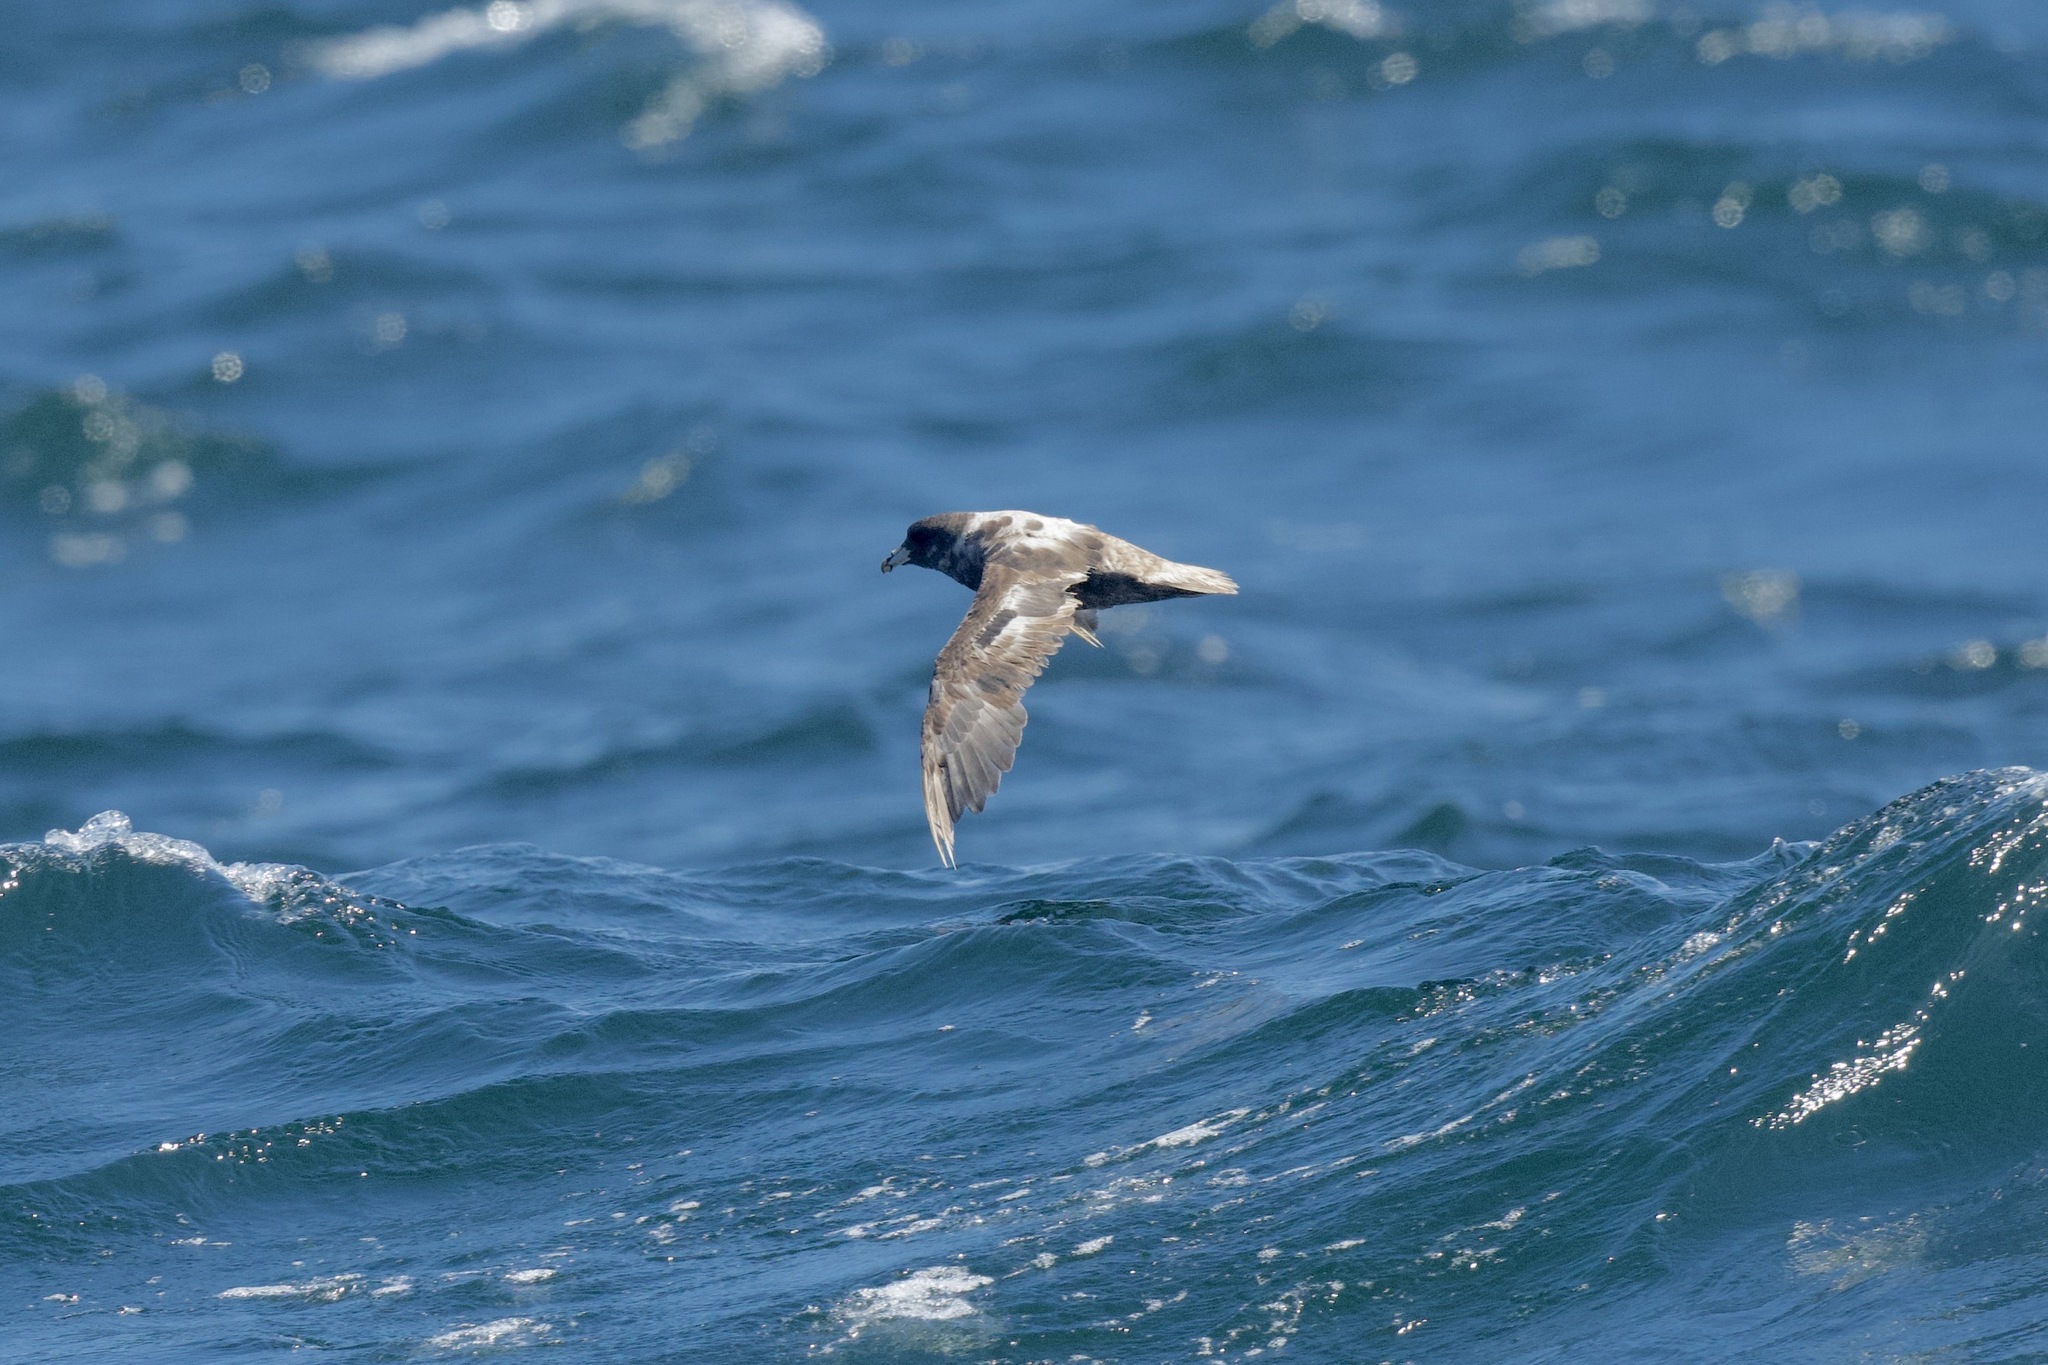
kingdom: Animalia
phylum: Chordata
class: Aves
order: Procellariiformes
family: Procellariidae
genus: Fulmarus
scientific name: Fulmarus glacialis
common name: Northern fulmar
